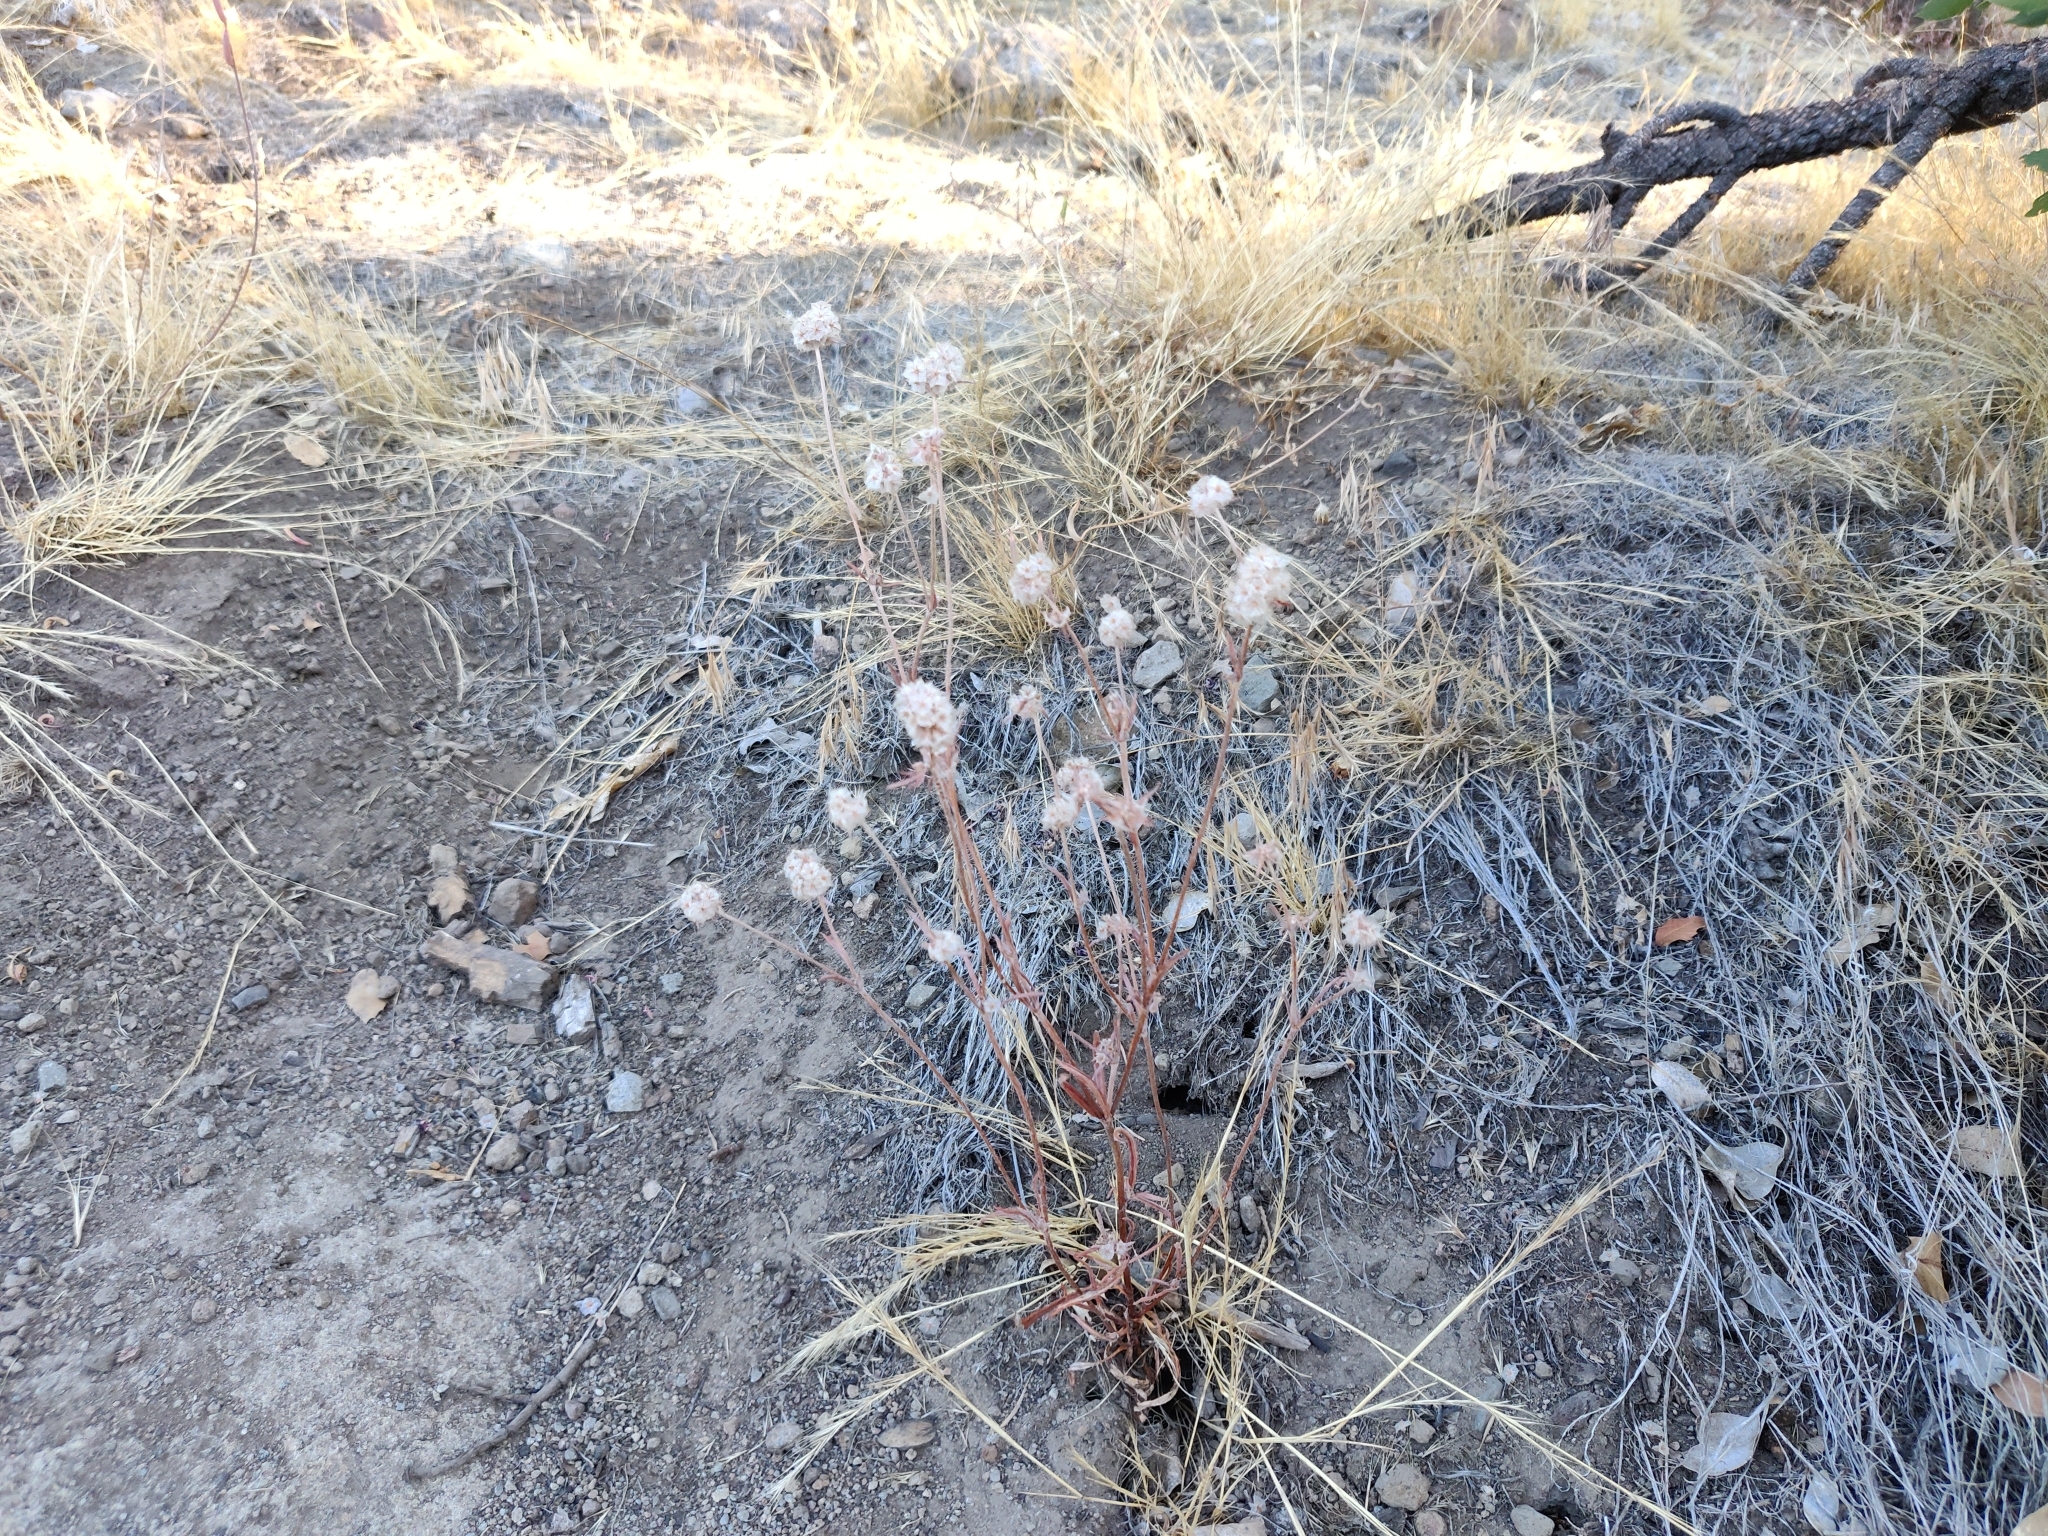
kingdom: Plantae
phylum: Tracheophyta
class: Magnoliopsida
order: Caryophyllales
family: Polygonaceae
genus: Chorizanthe
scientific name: Chorizanthe membranacea
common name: Pink spineflower
